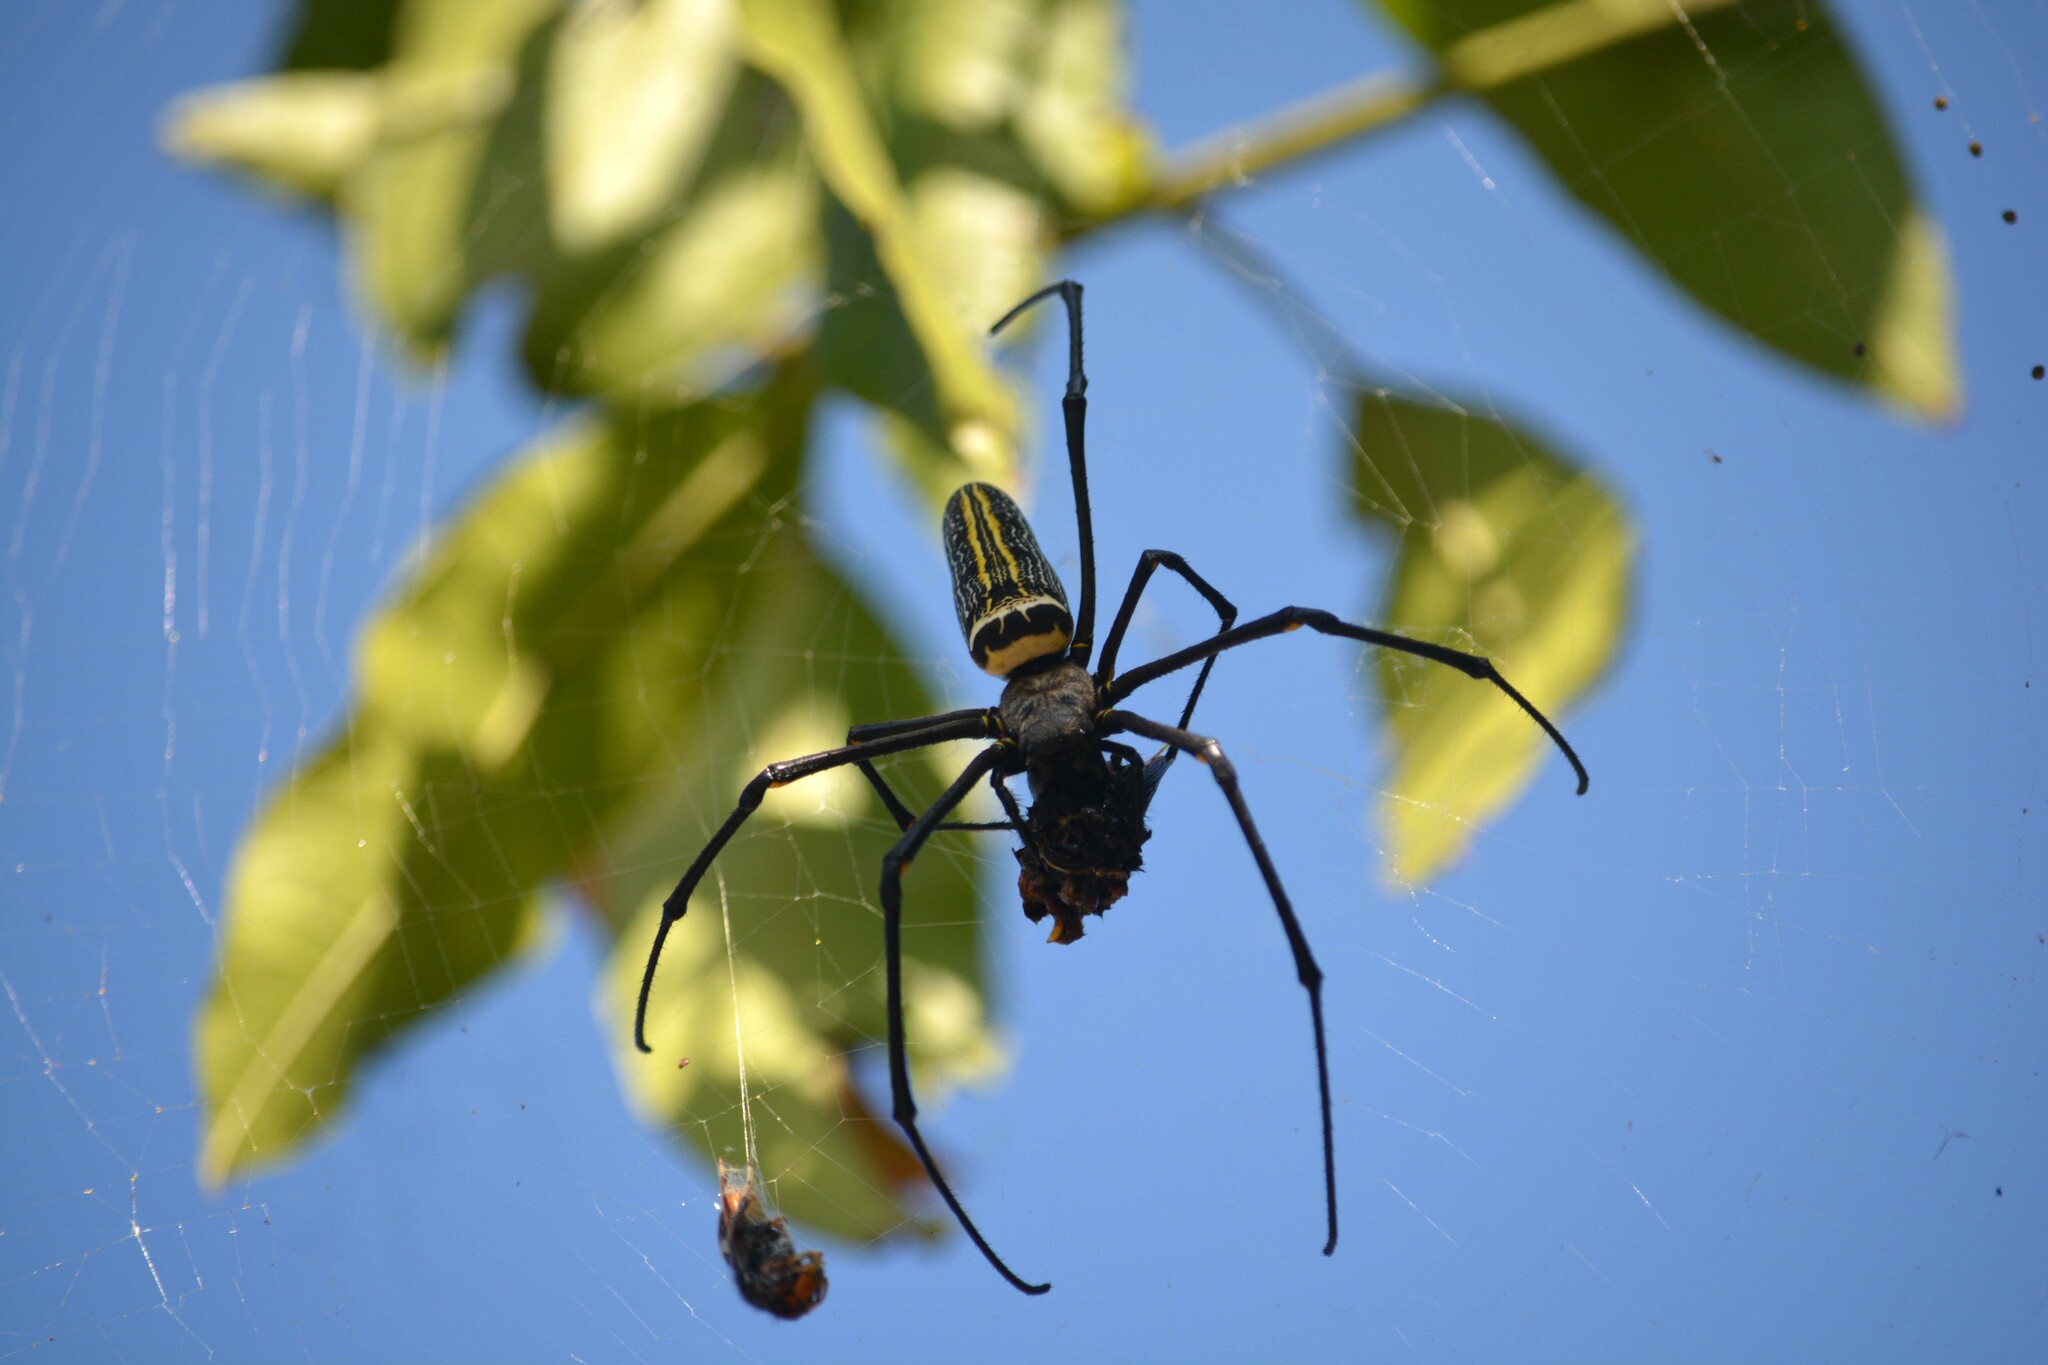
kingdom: Animalia
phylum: Arthropoda
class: Arachnida
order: Araneae
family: Araneidae
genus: Nephila
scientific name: Nephila pilipes
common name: Giant golden orb weaver
